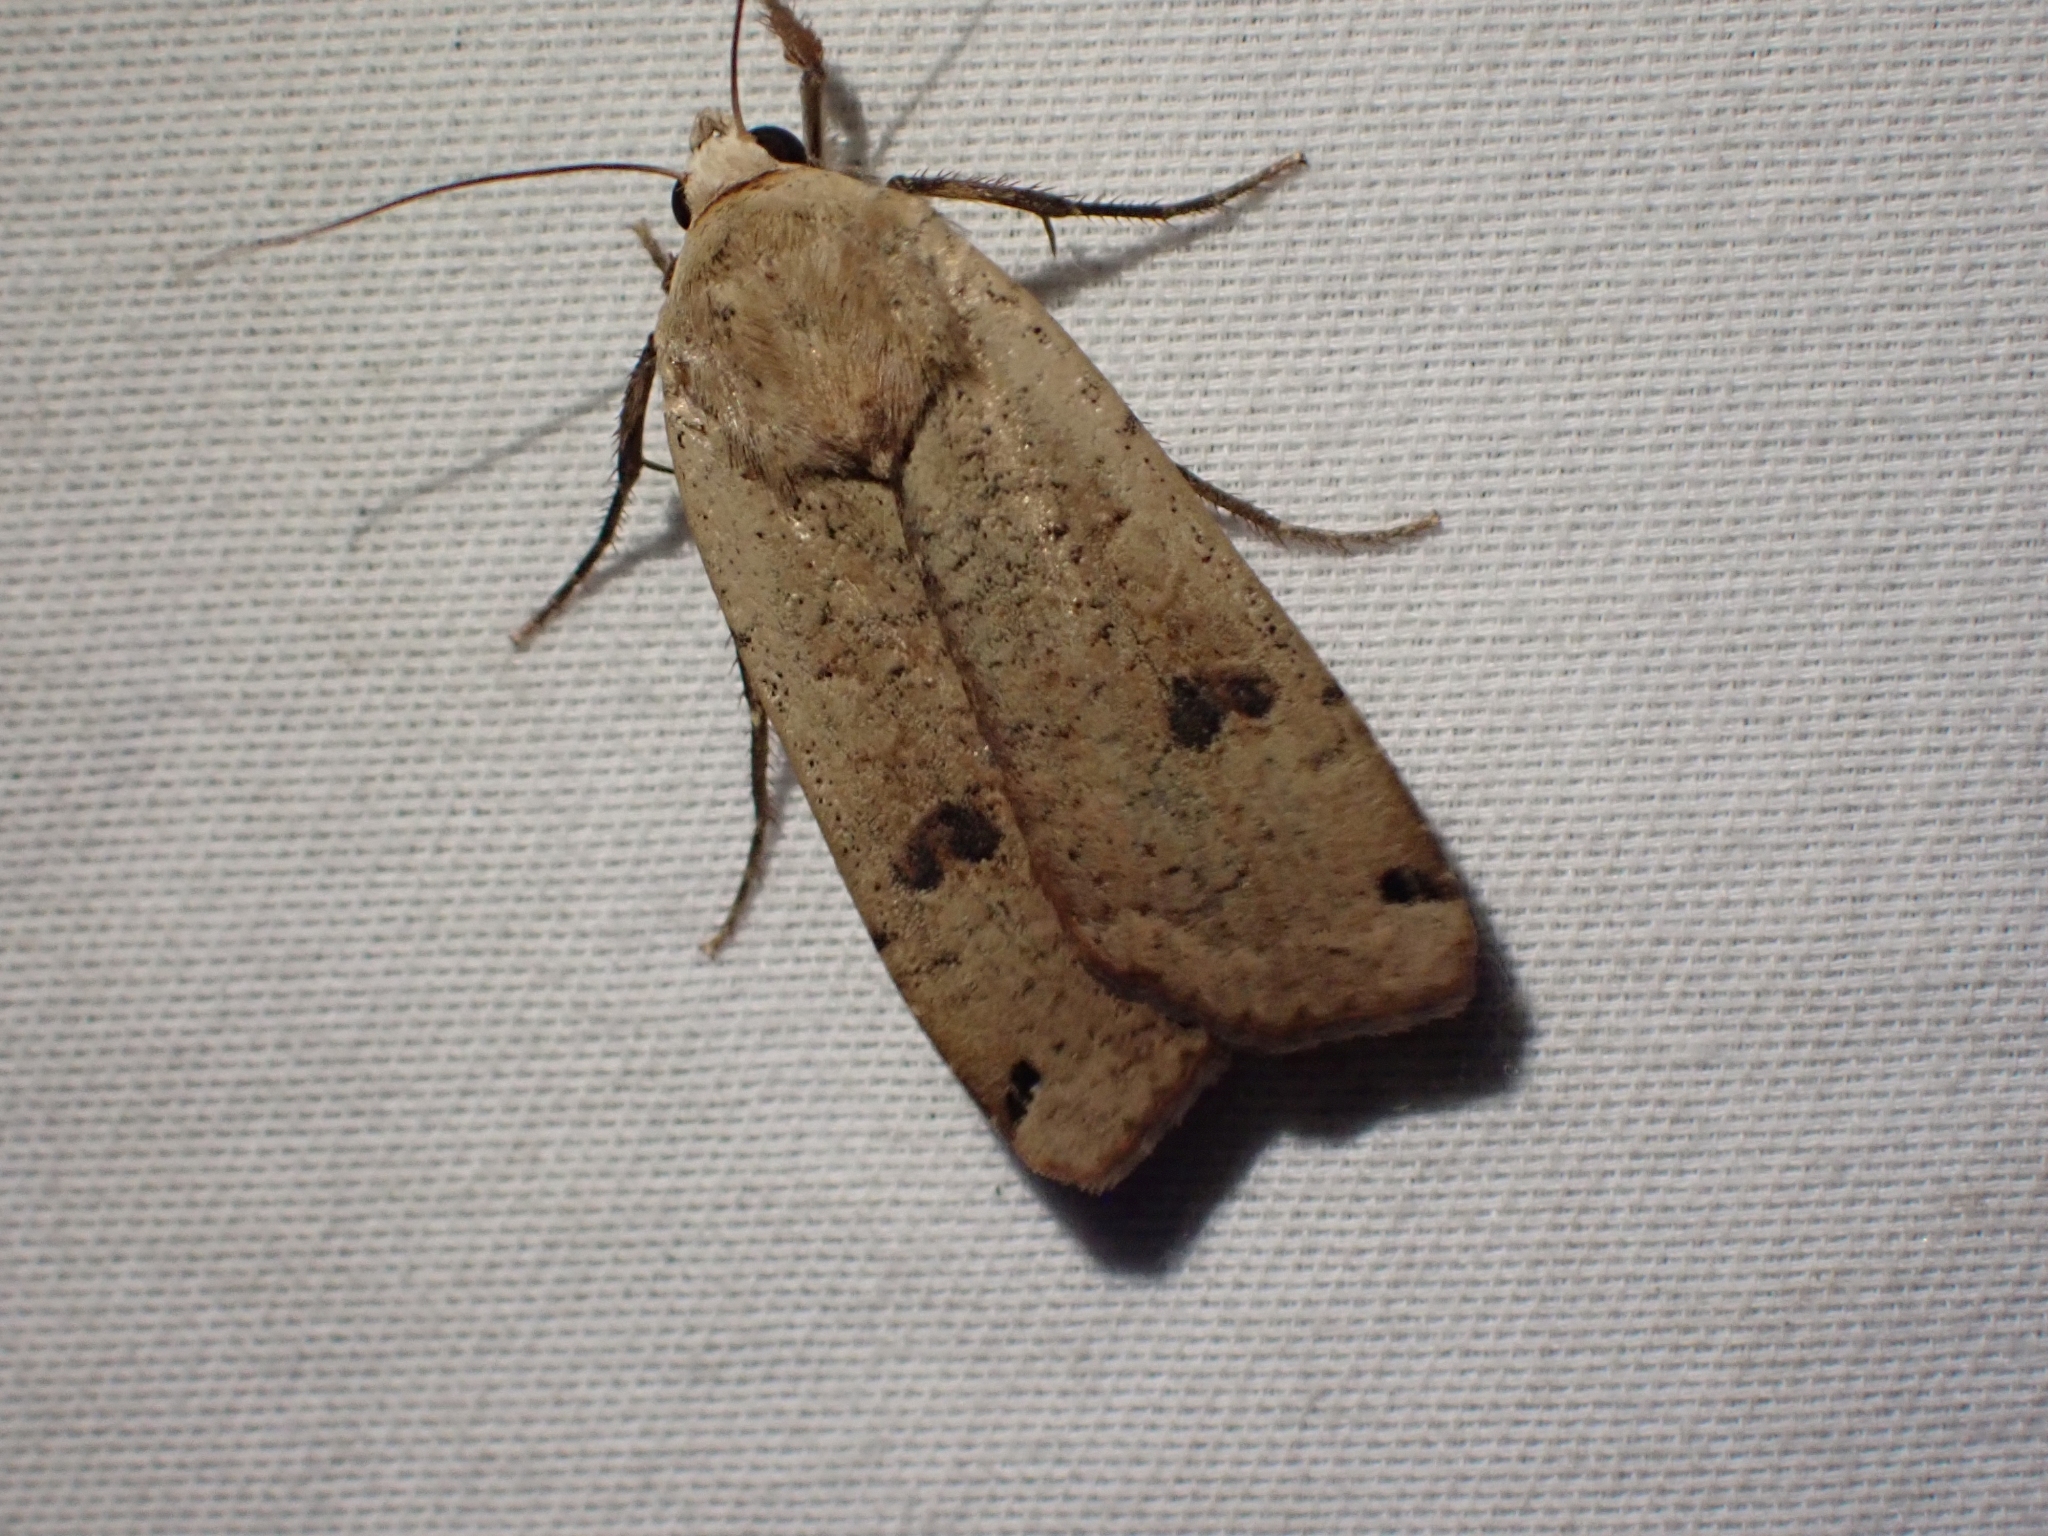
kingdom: Animalia
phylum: Arthropoda
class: Insecta
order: Lepidoptera
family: Noctuidae
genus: Noctua
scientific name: Noctua pronuba
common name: Large yellow underwing
